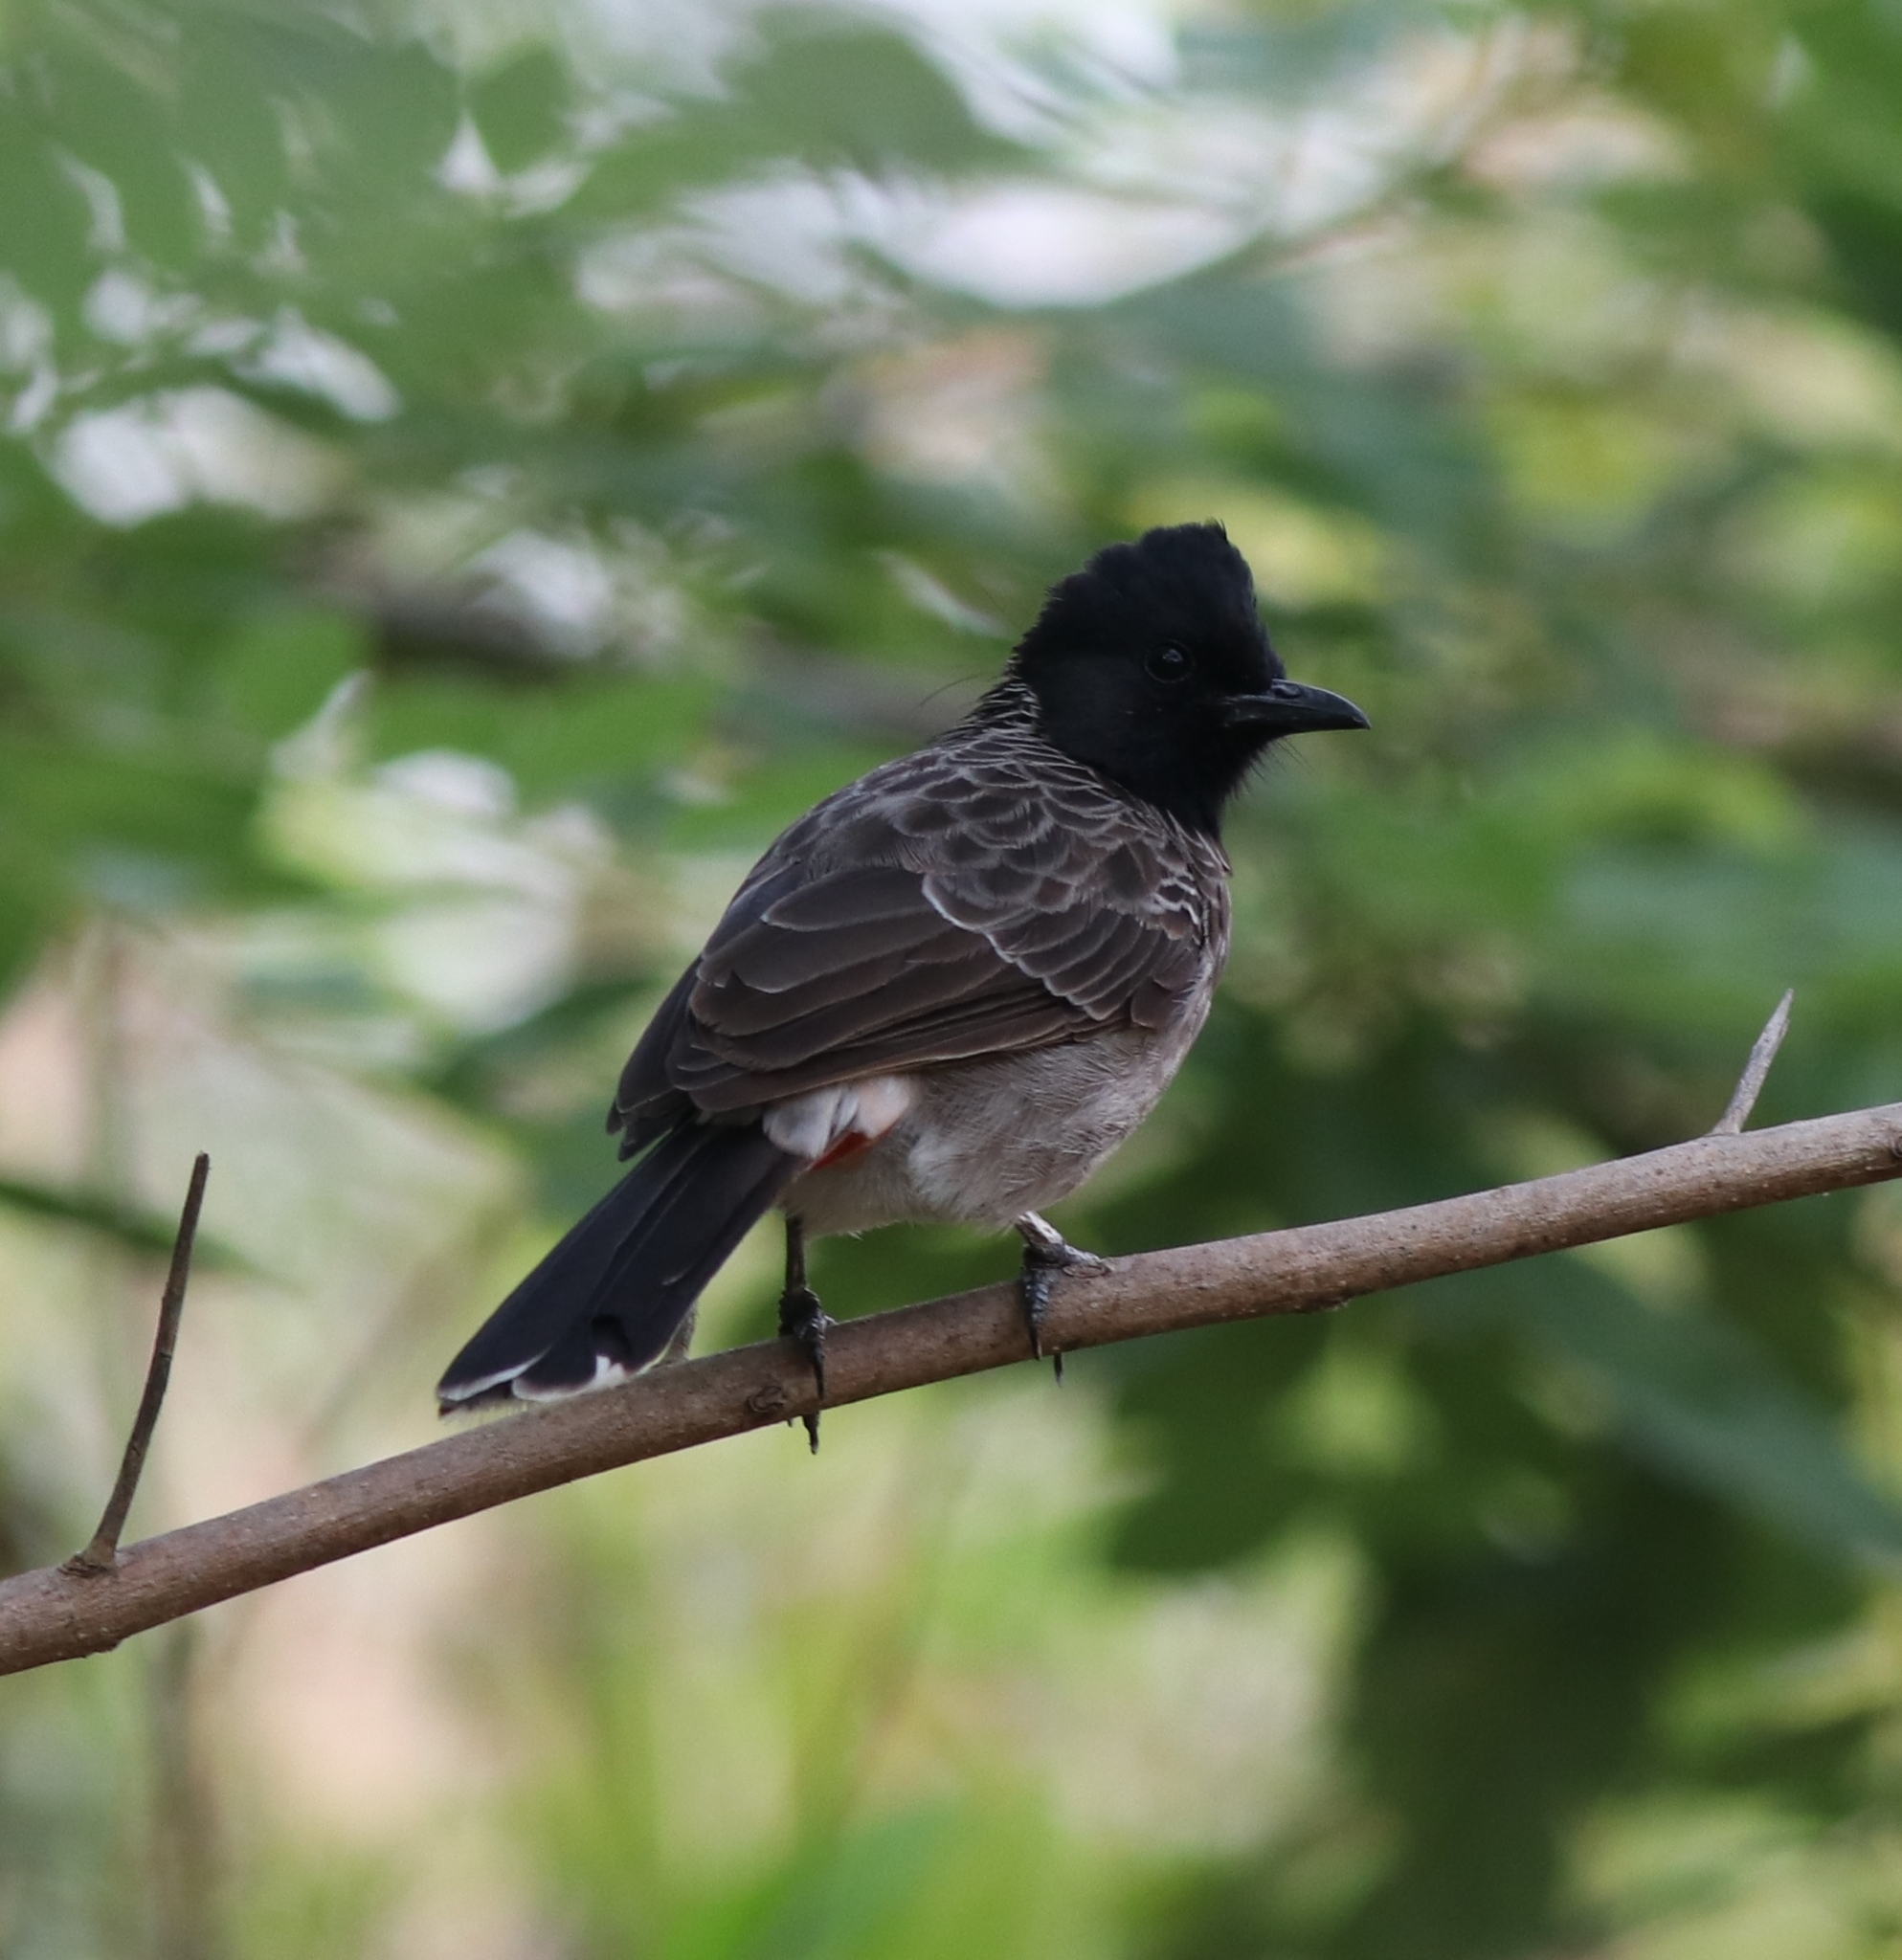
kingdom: Animalia
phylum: Chordata
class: Aves
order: Passeriformes
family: Pycnonotidae
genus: Pycnonotus
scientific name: Pycnonotus cafer
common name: Red-vented bulbul
